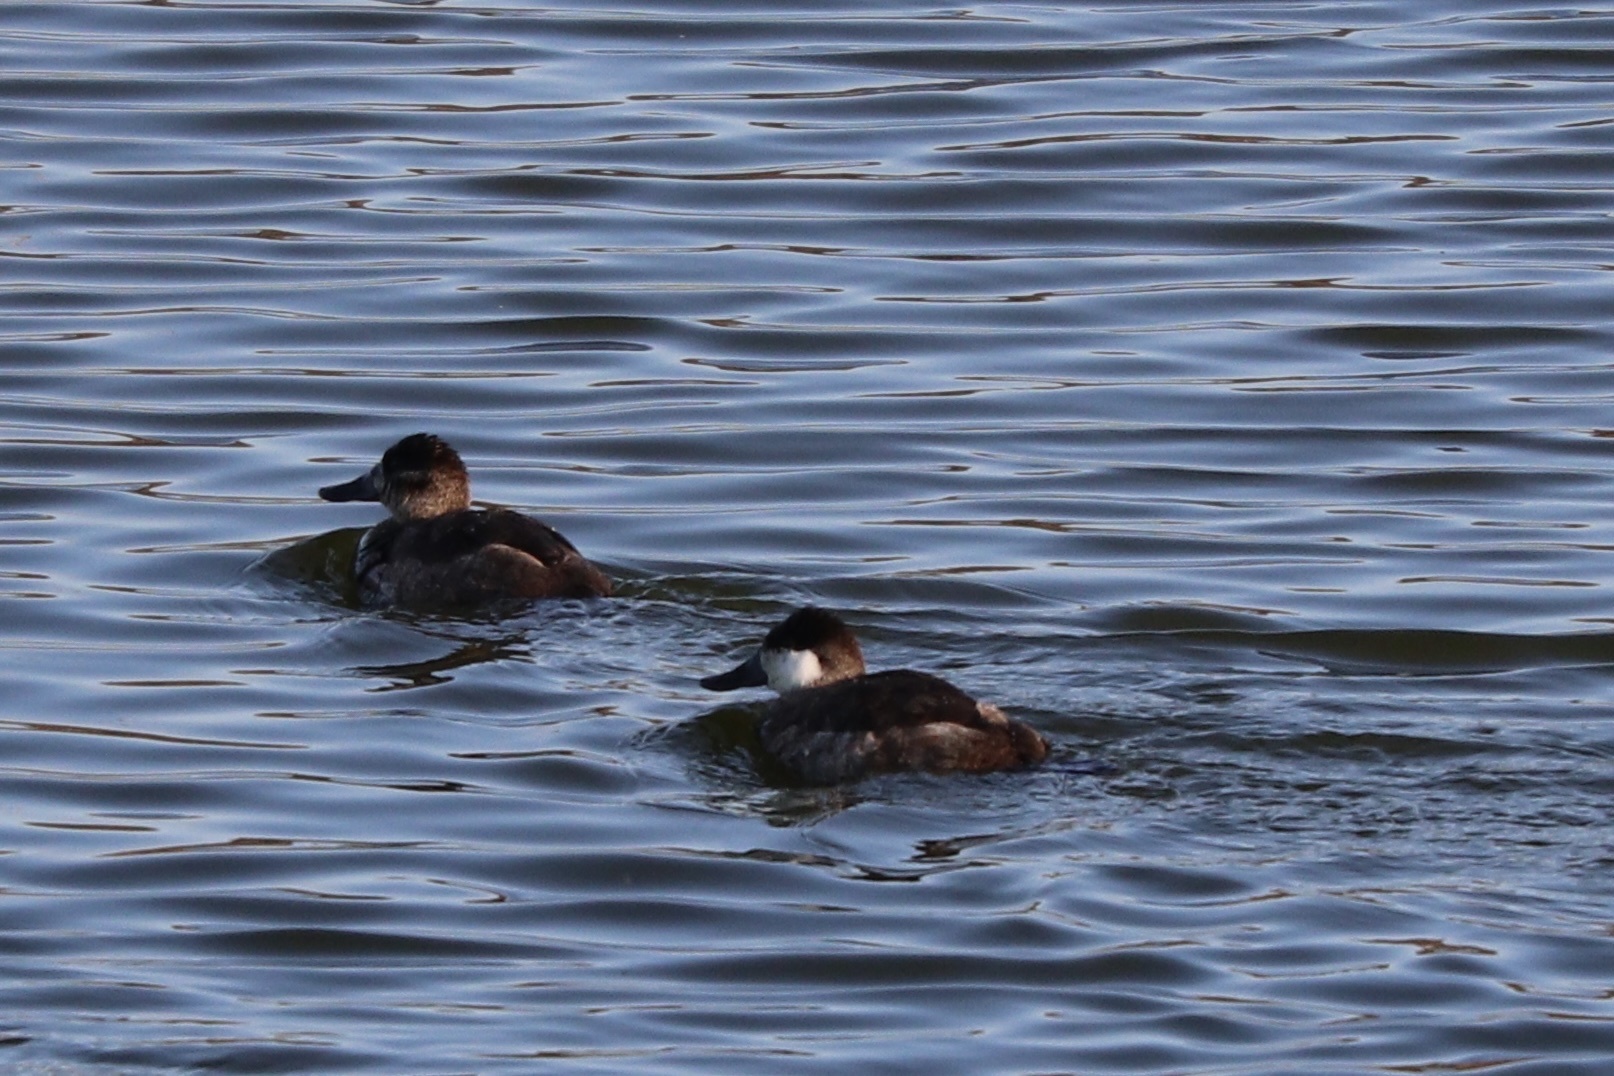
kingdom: Animalia
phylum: Chordata
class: Aves
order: Anseriformes
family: Anatidae
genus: Oxyura
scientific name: Oxyura jamaicensis
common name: Ruddy duck
